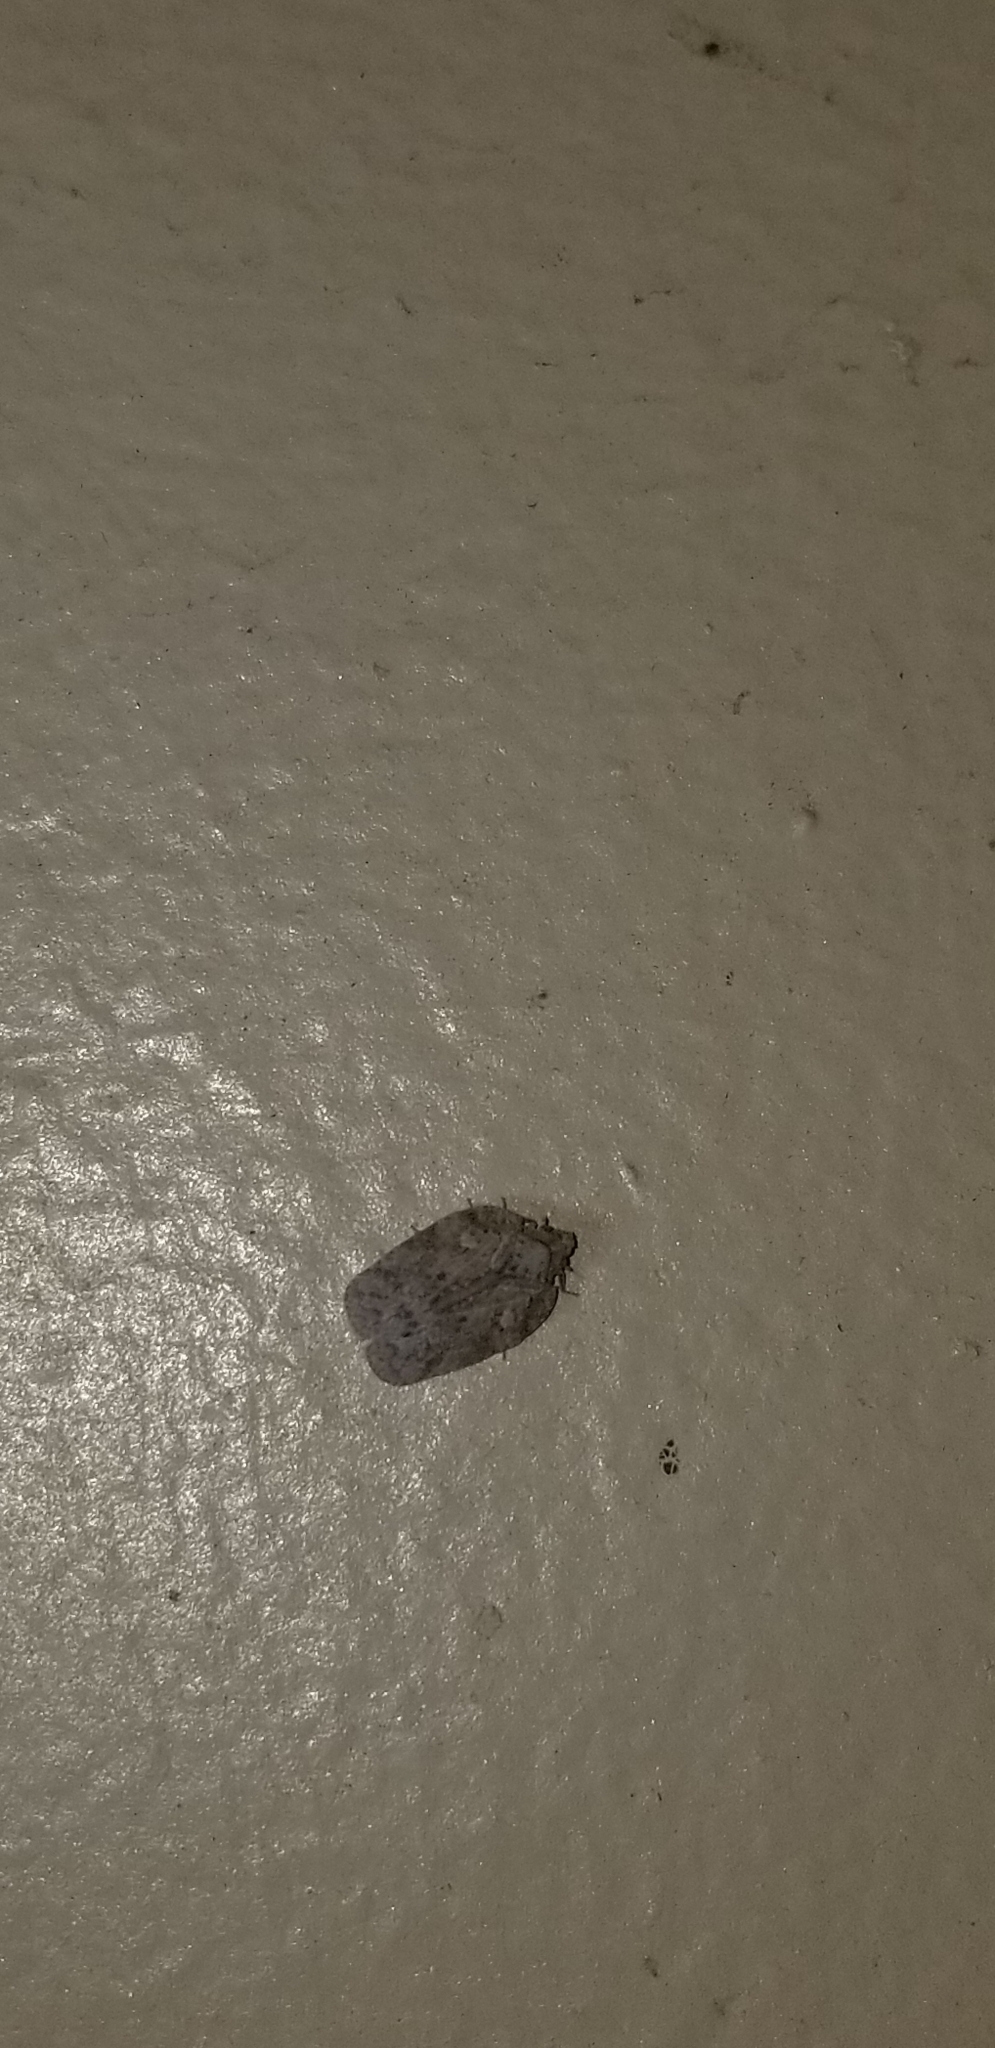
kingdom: Animalia
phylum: Arthropoda
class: Insecta
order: Hemiptera
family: Flatidae
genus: Flatoidinus
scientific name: Flatoidinus punctatus
